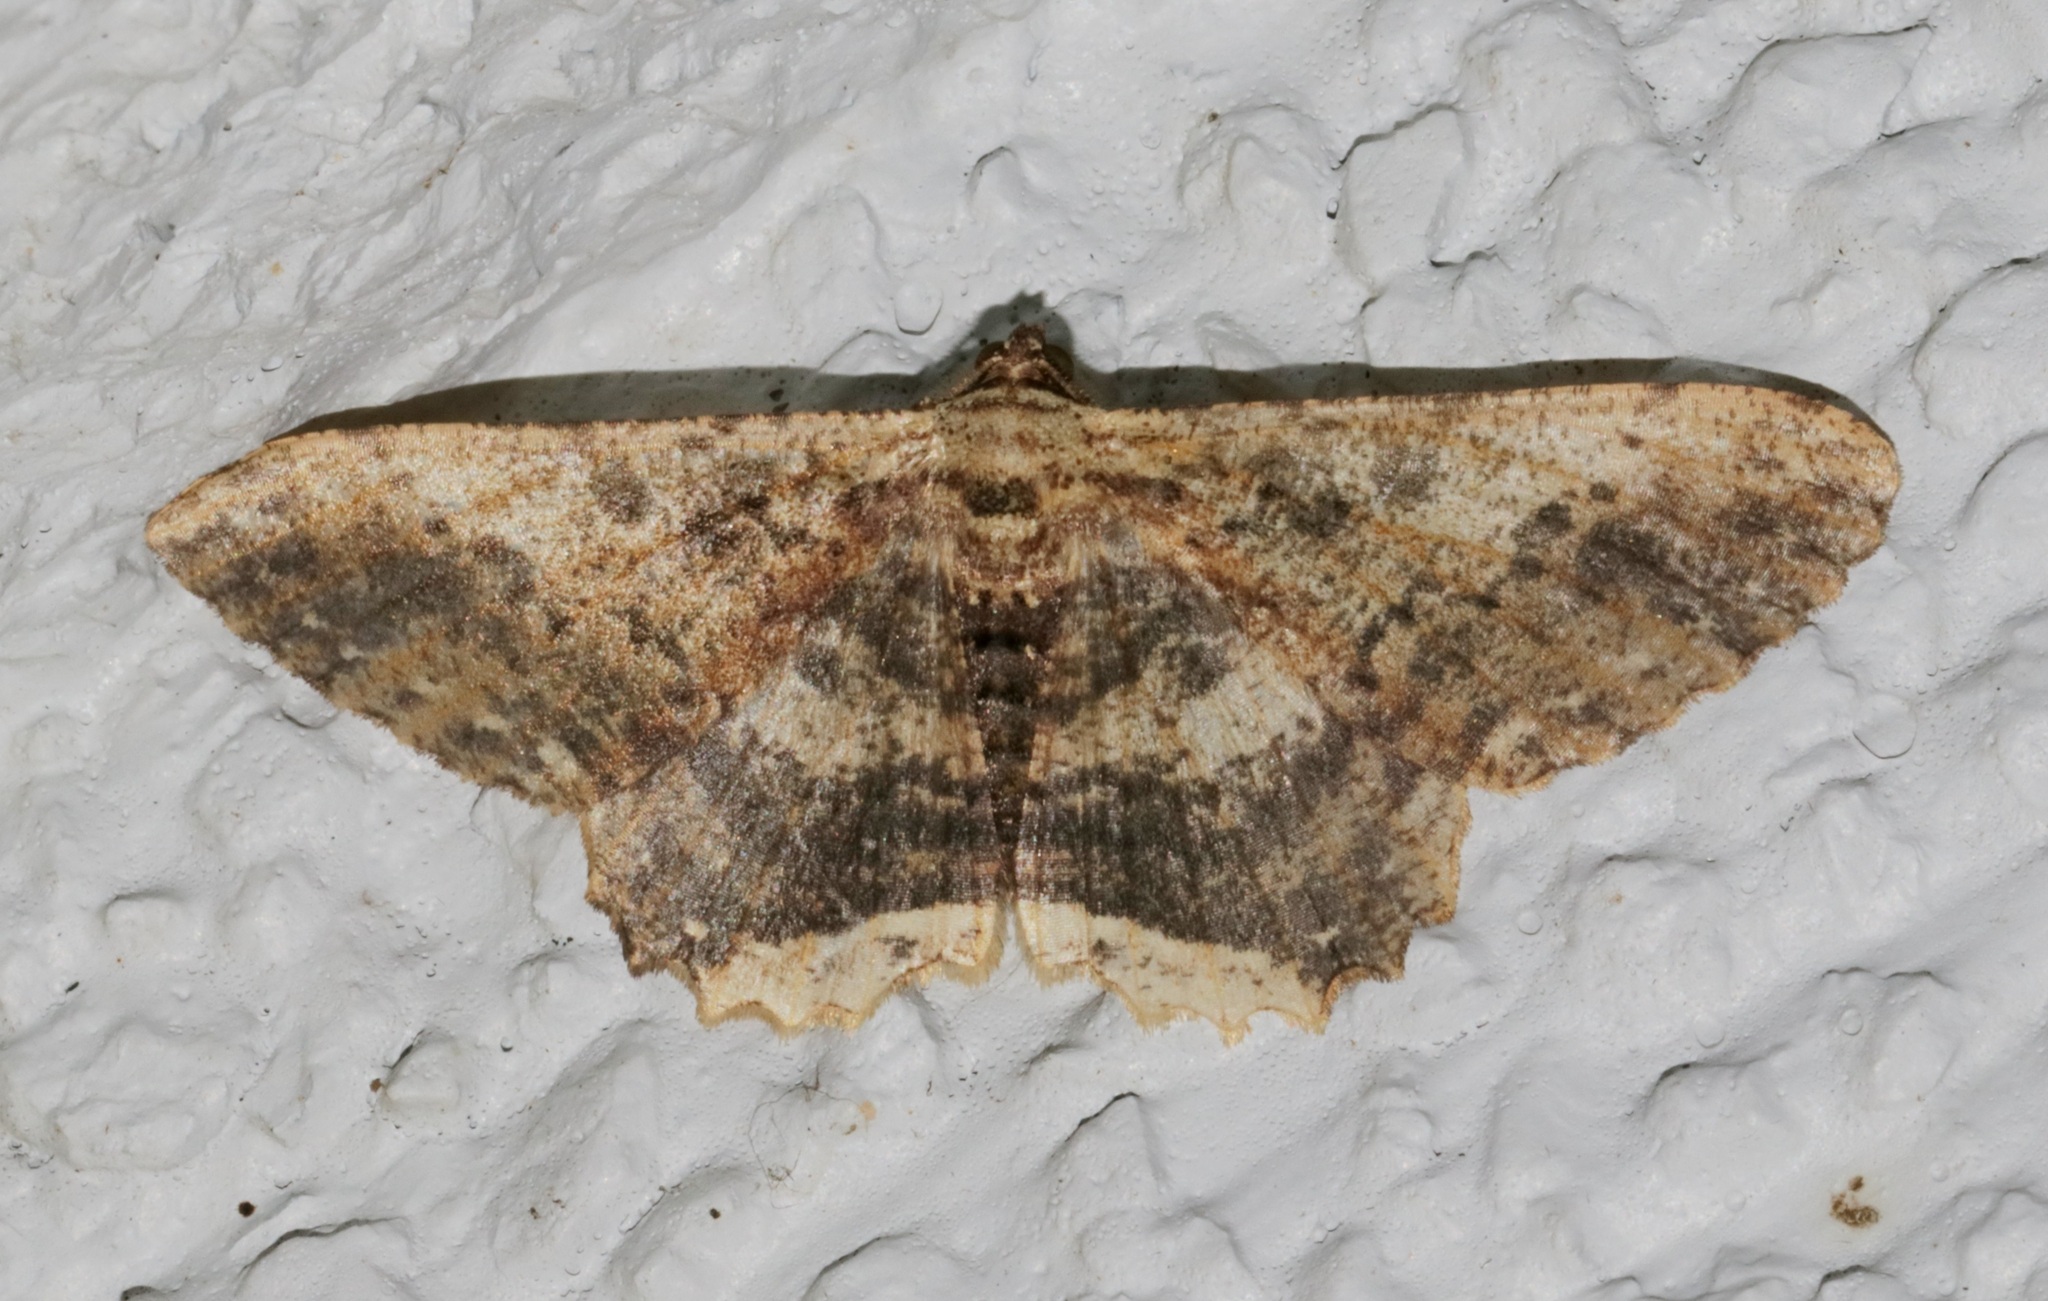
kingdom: Animalia
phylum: Arthropoda
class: Insecta
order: Lepidoptera
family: Geometridae
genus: Ruttellerona
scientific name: Ruttellerona pseudocessaria
